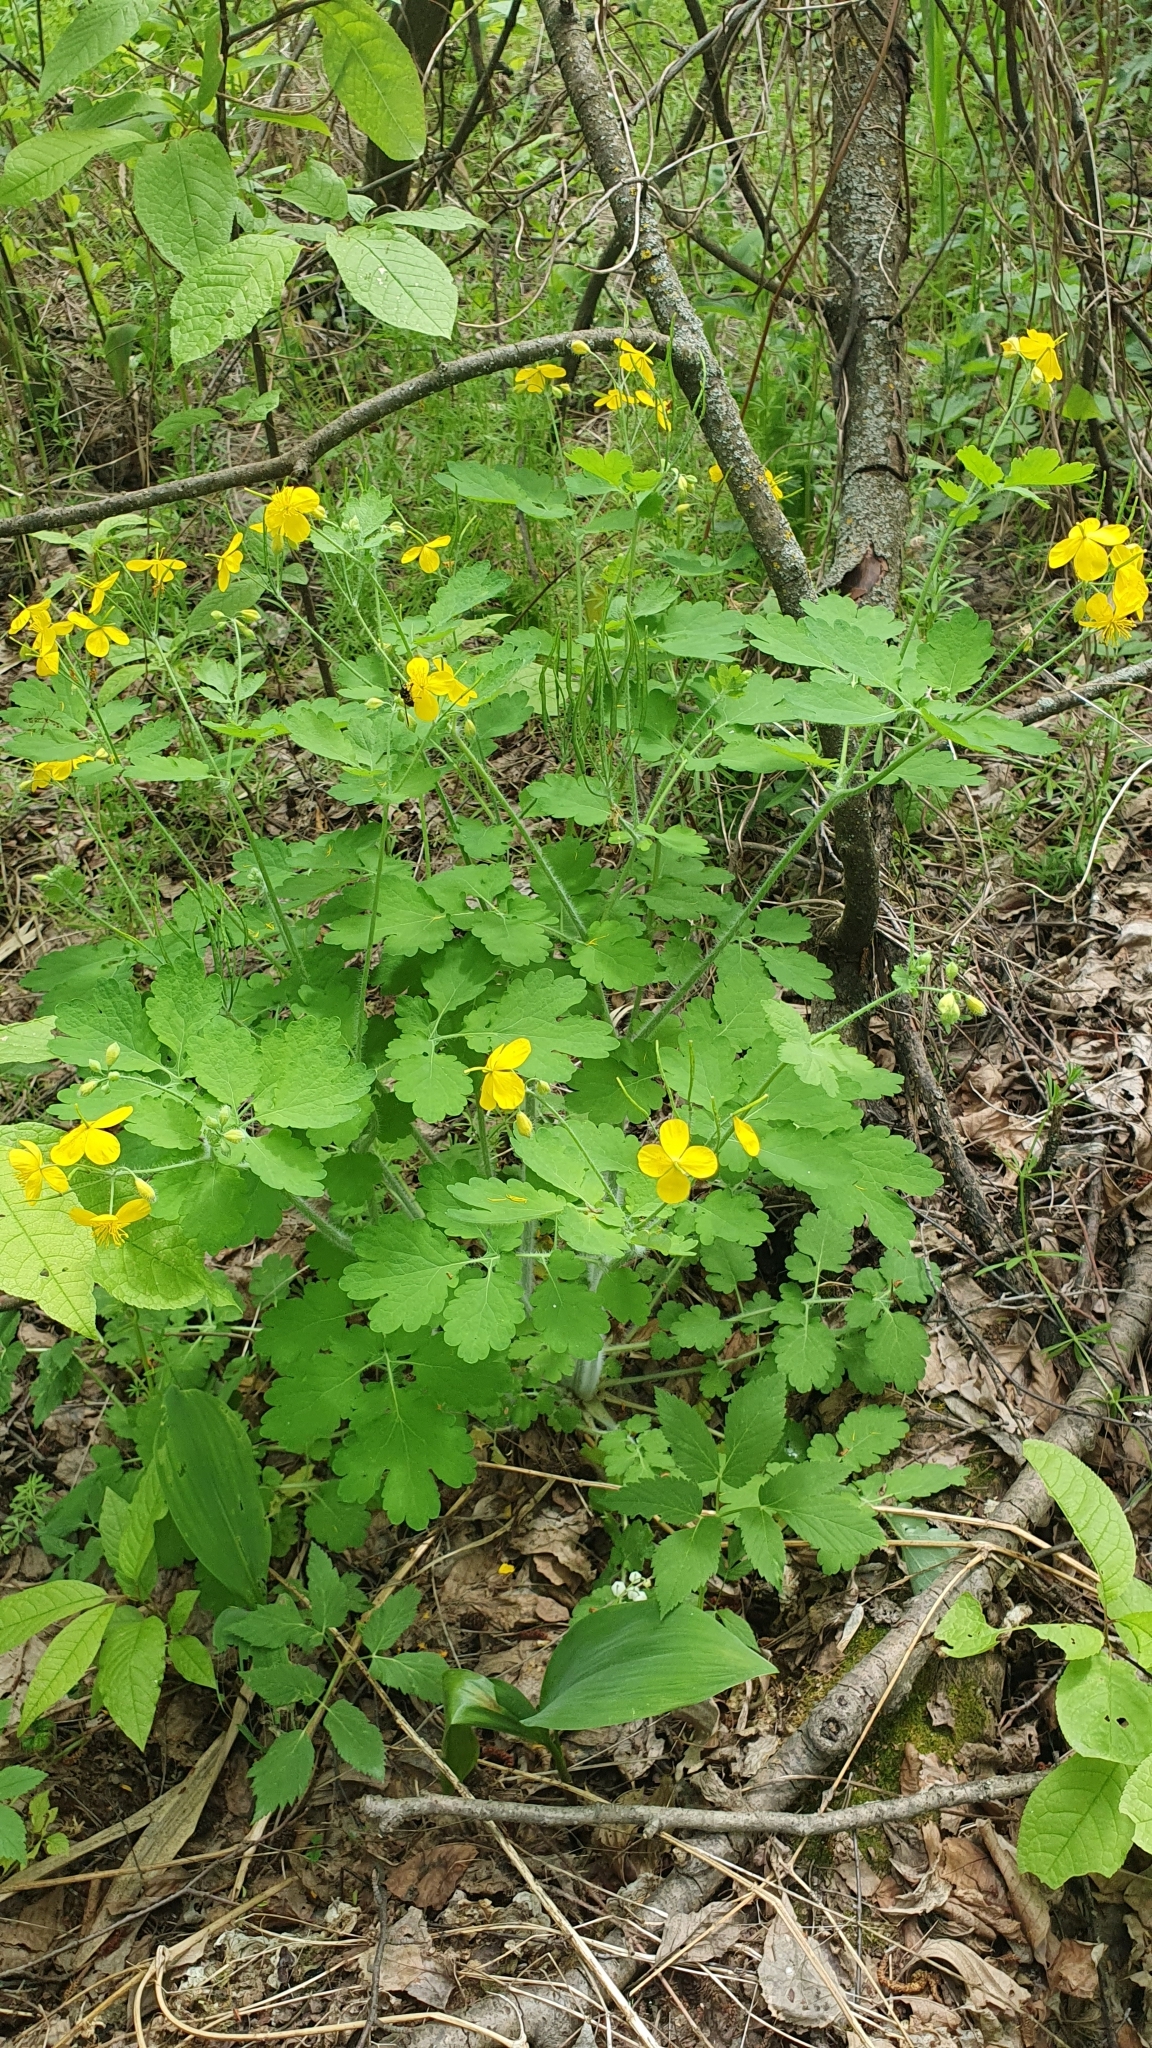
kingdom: Plantae
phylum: Tracheophyta
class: Magnoliopsida
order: Ranunculales
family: Papaveraceae
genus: Chelidonium
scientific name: Chelidonium majus
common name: Greater celandine
